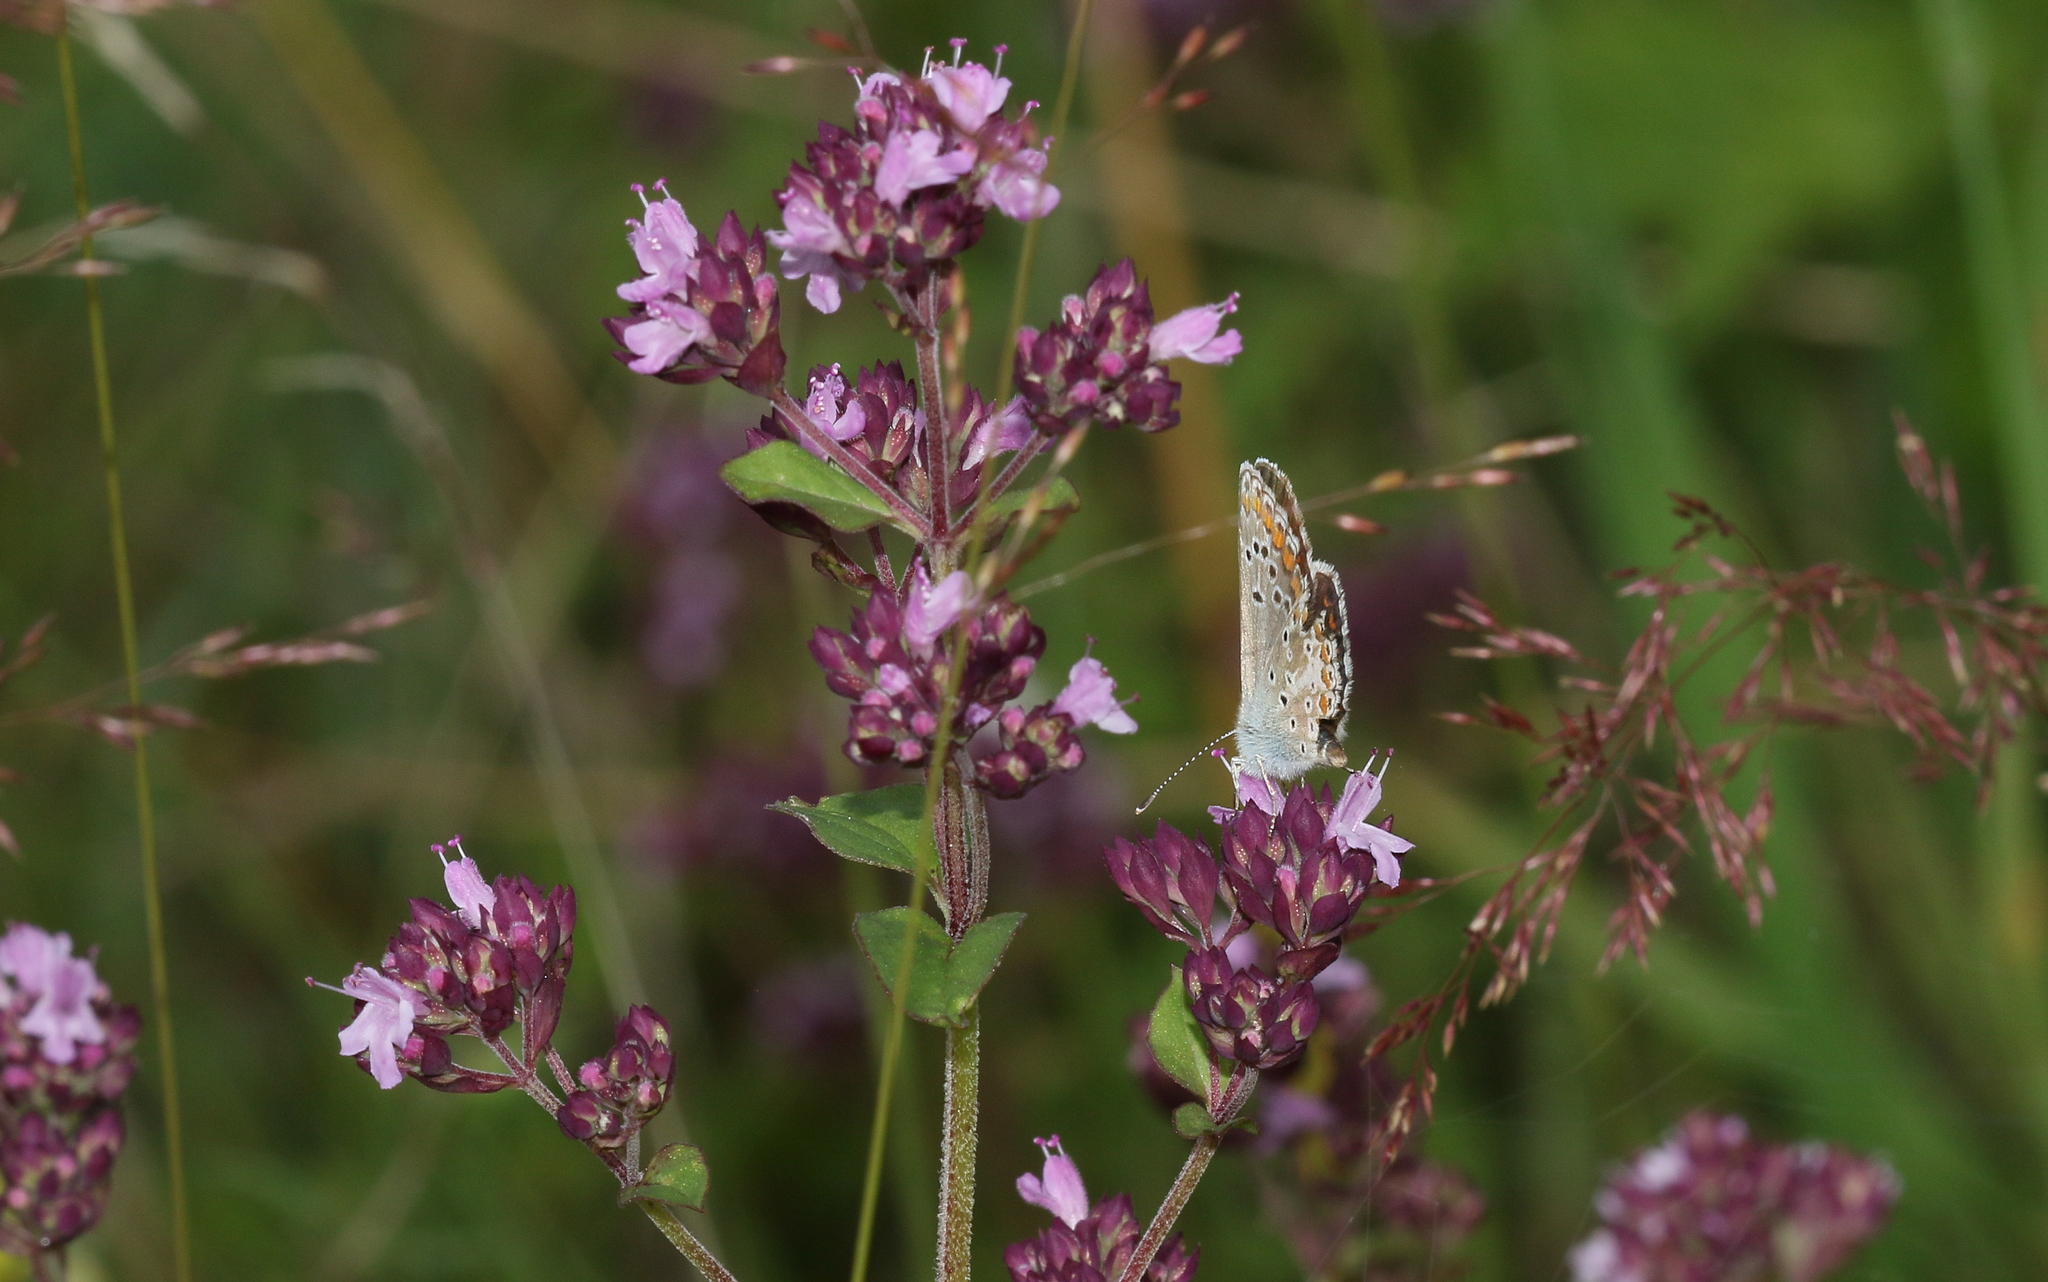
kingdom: Animalia
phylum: Arthropoda
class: Insecta
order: Lepidoptera
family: Lycaenidae
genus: Aricia
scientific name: Aricia agestis
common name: Brown argus
